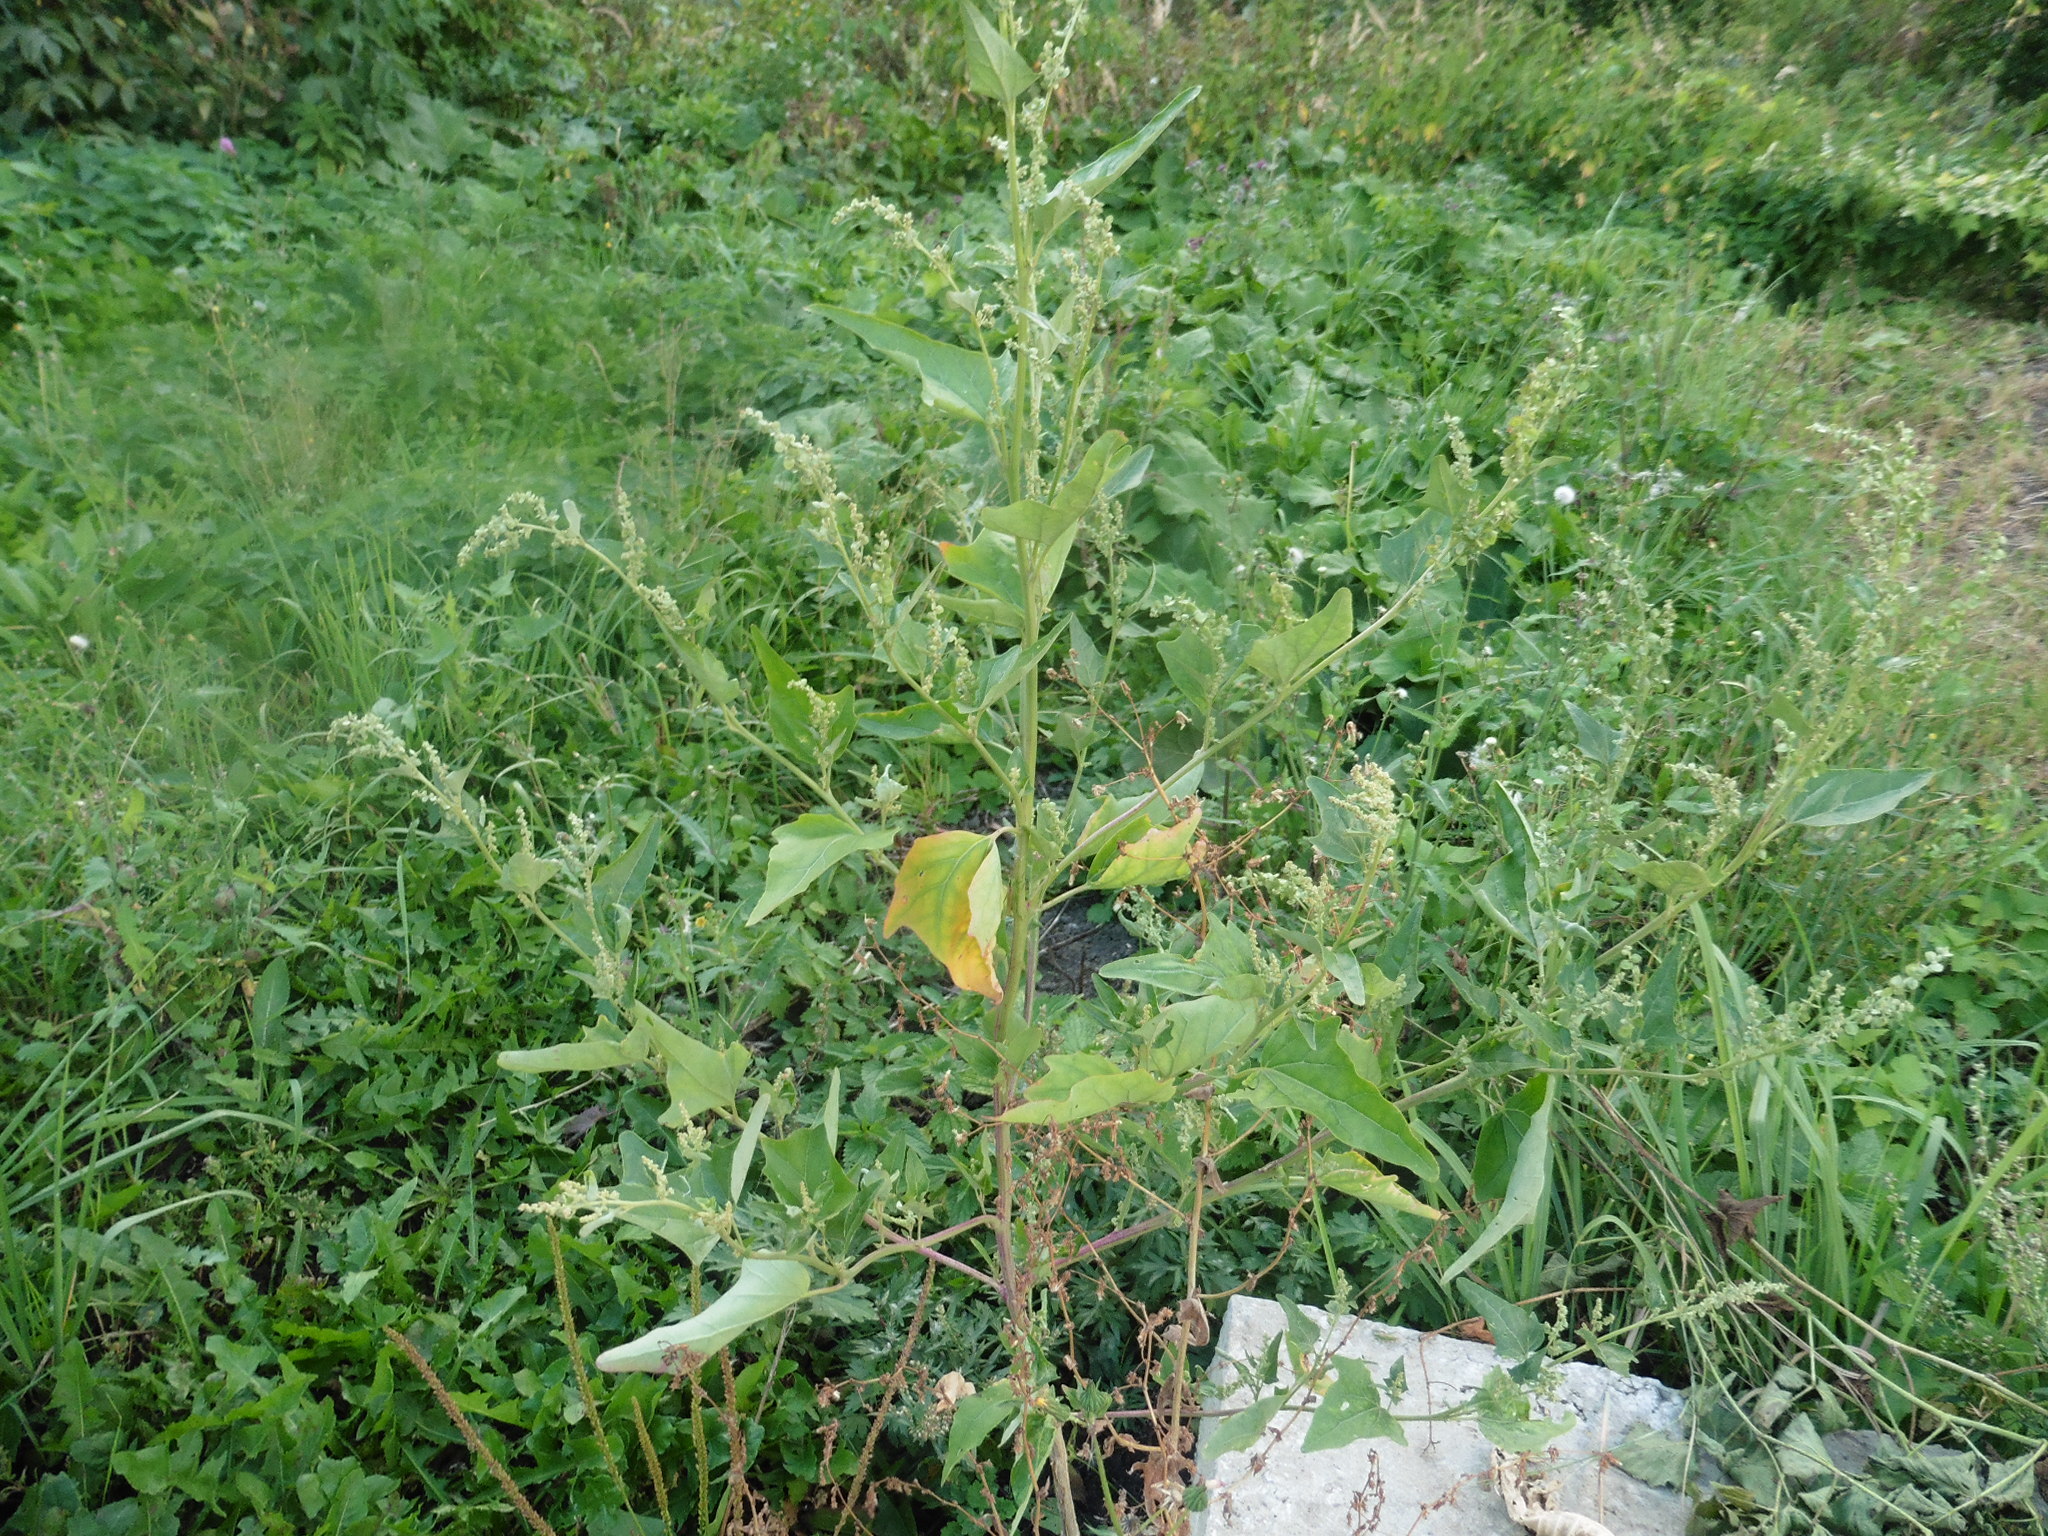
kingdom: Plantae
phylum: Tracheophyta
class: Magnoliopsida
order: Caryophyllales
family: Amaranthaceae
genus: Atriplex
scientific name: Atriplex sagittata
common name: Purple orache
